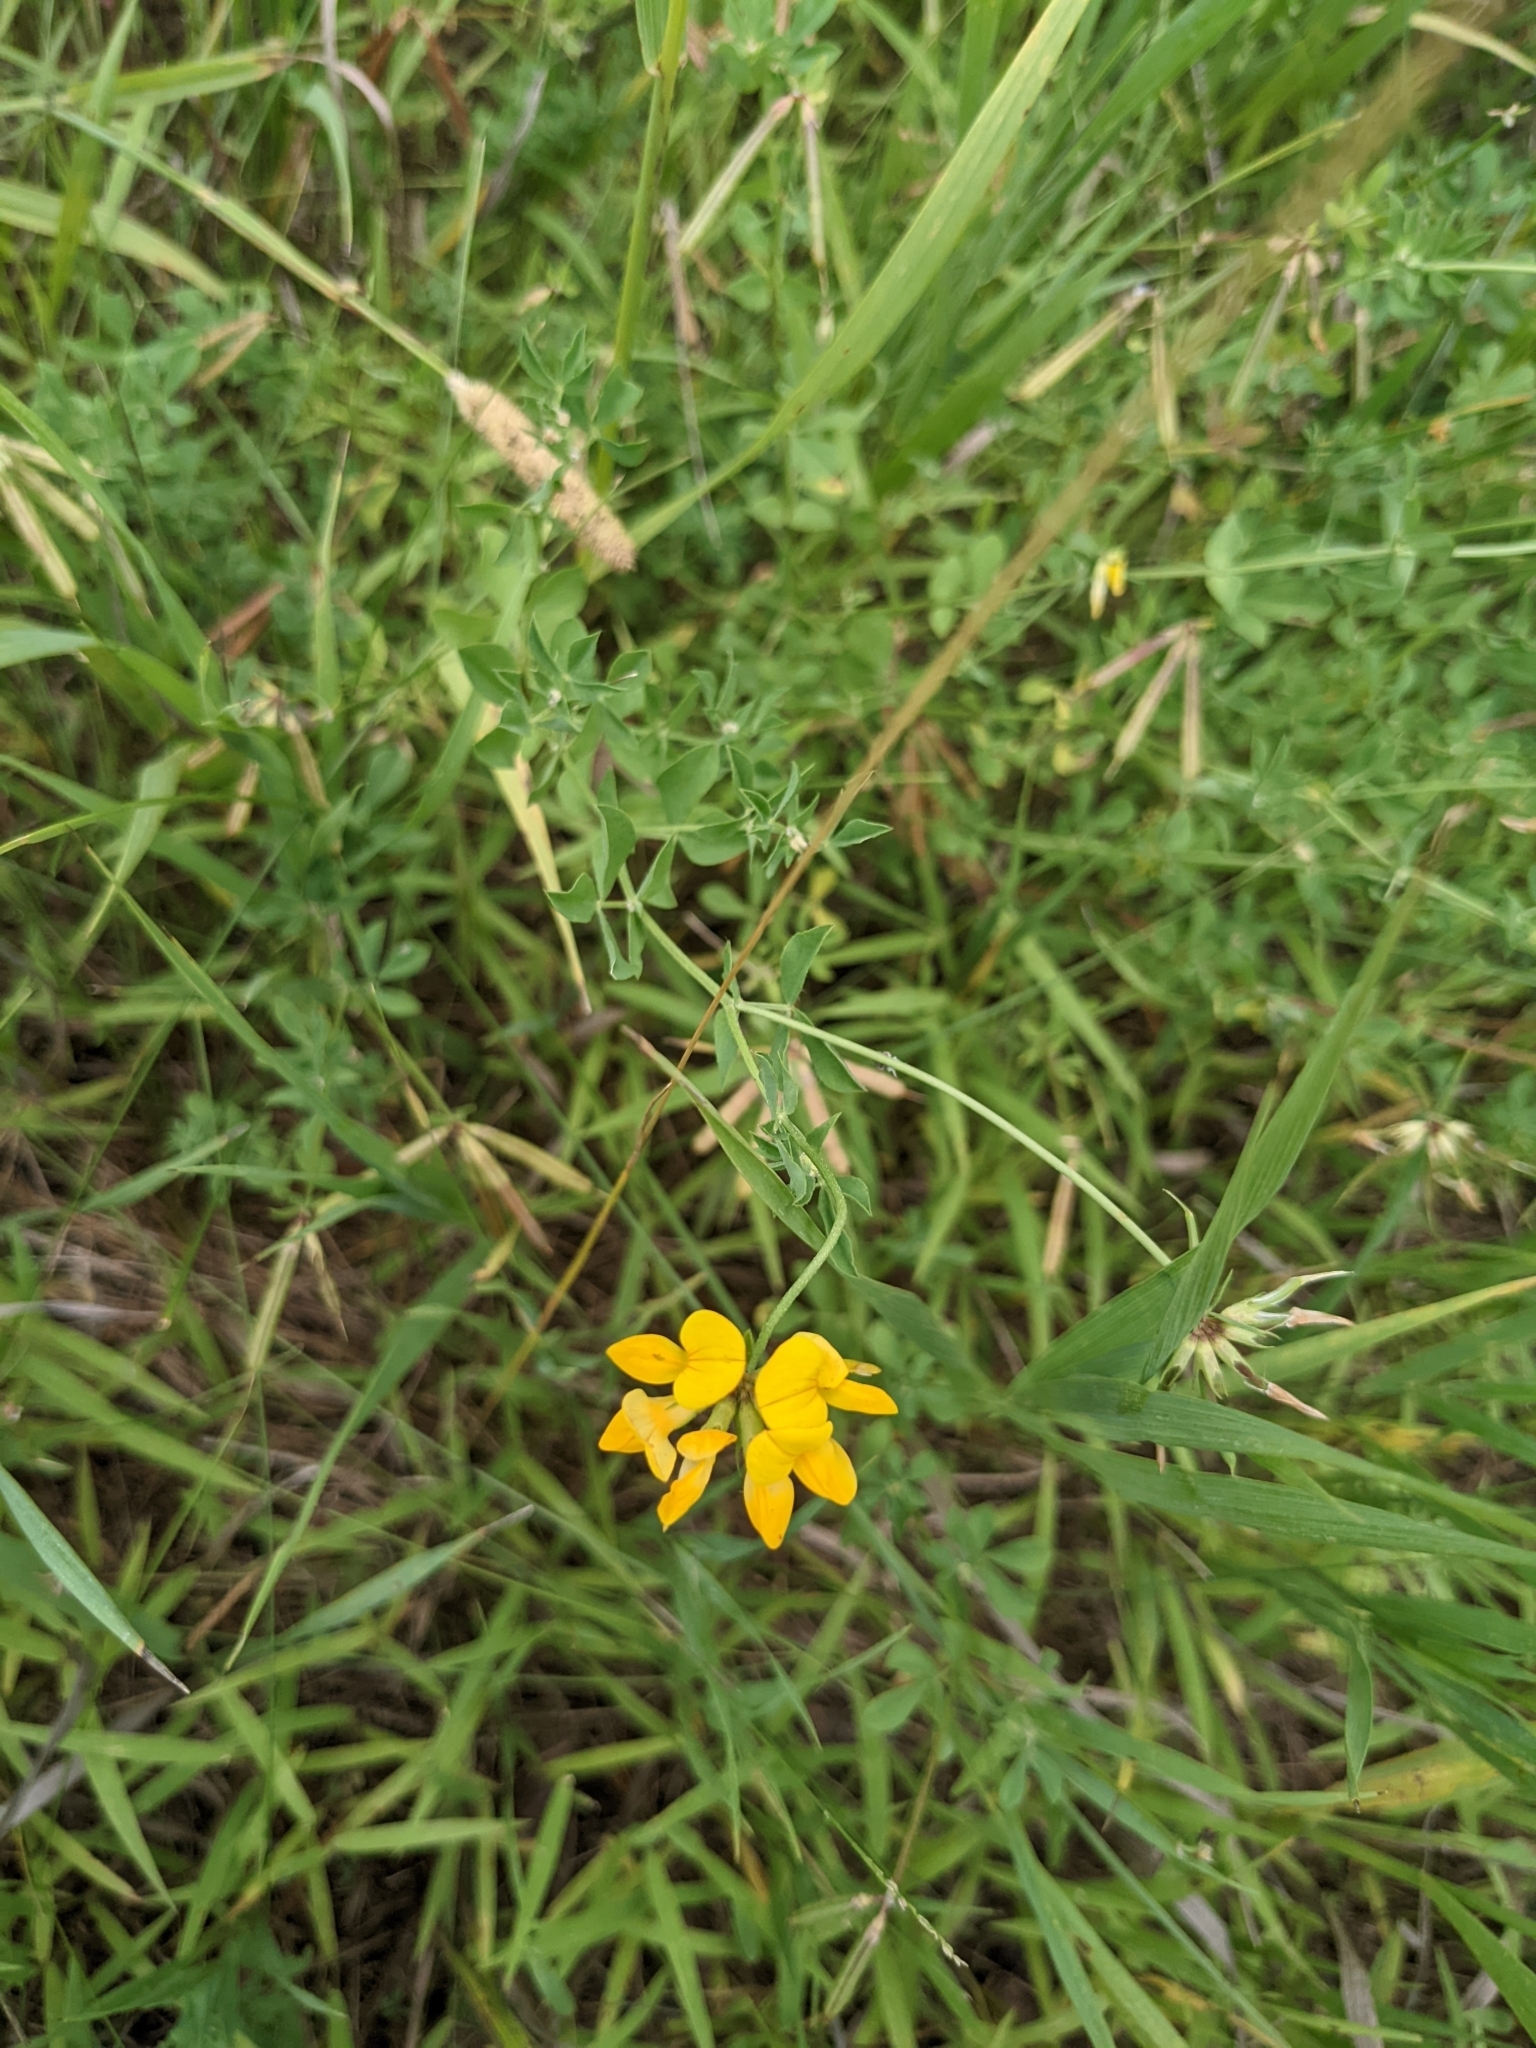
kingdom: Plantae
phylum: Tracheophyta
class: Magnoliopsida
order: Fabales
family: Fabaceae
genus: Lotus
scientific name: Lotus corniculatus
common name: Common bird's-foot-trefoil
